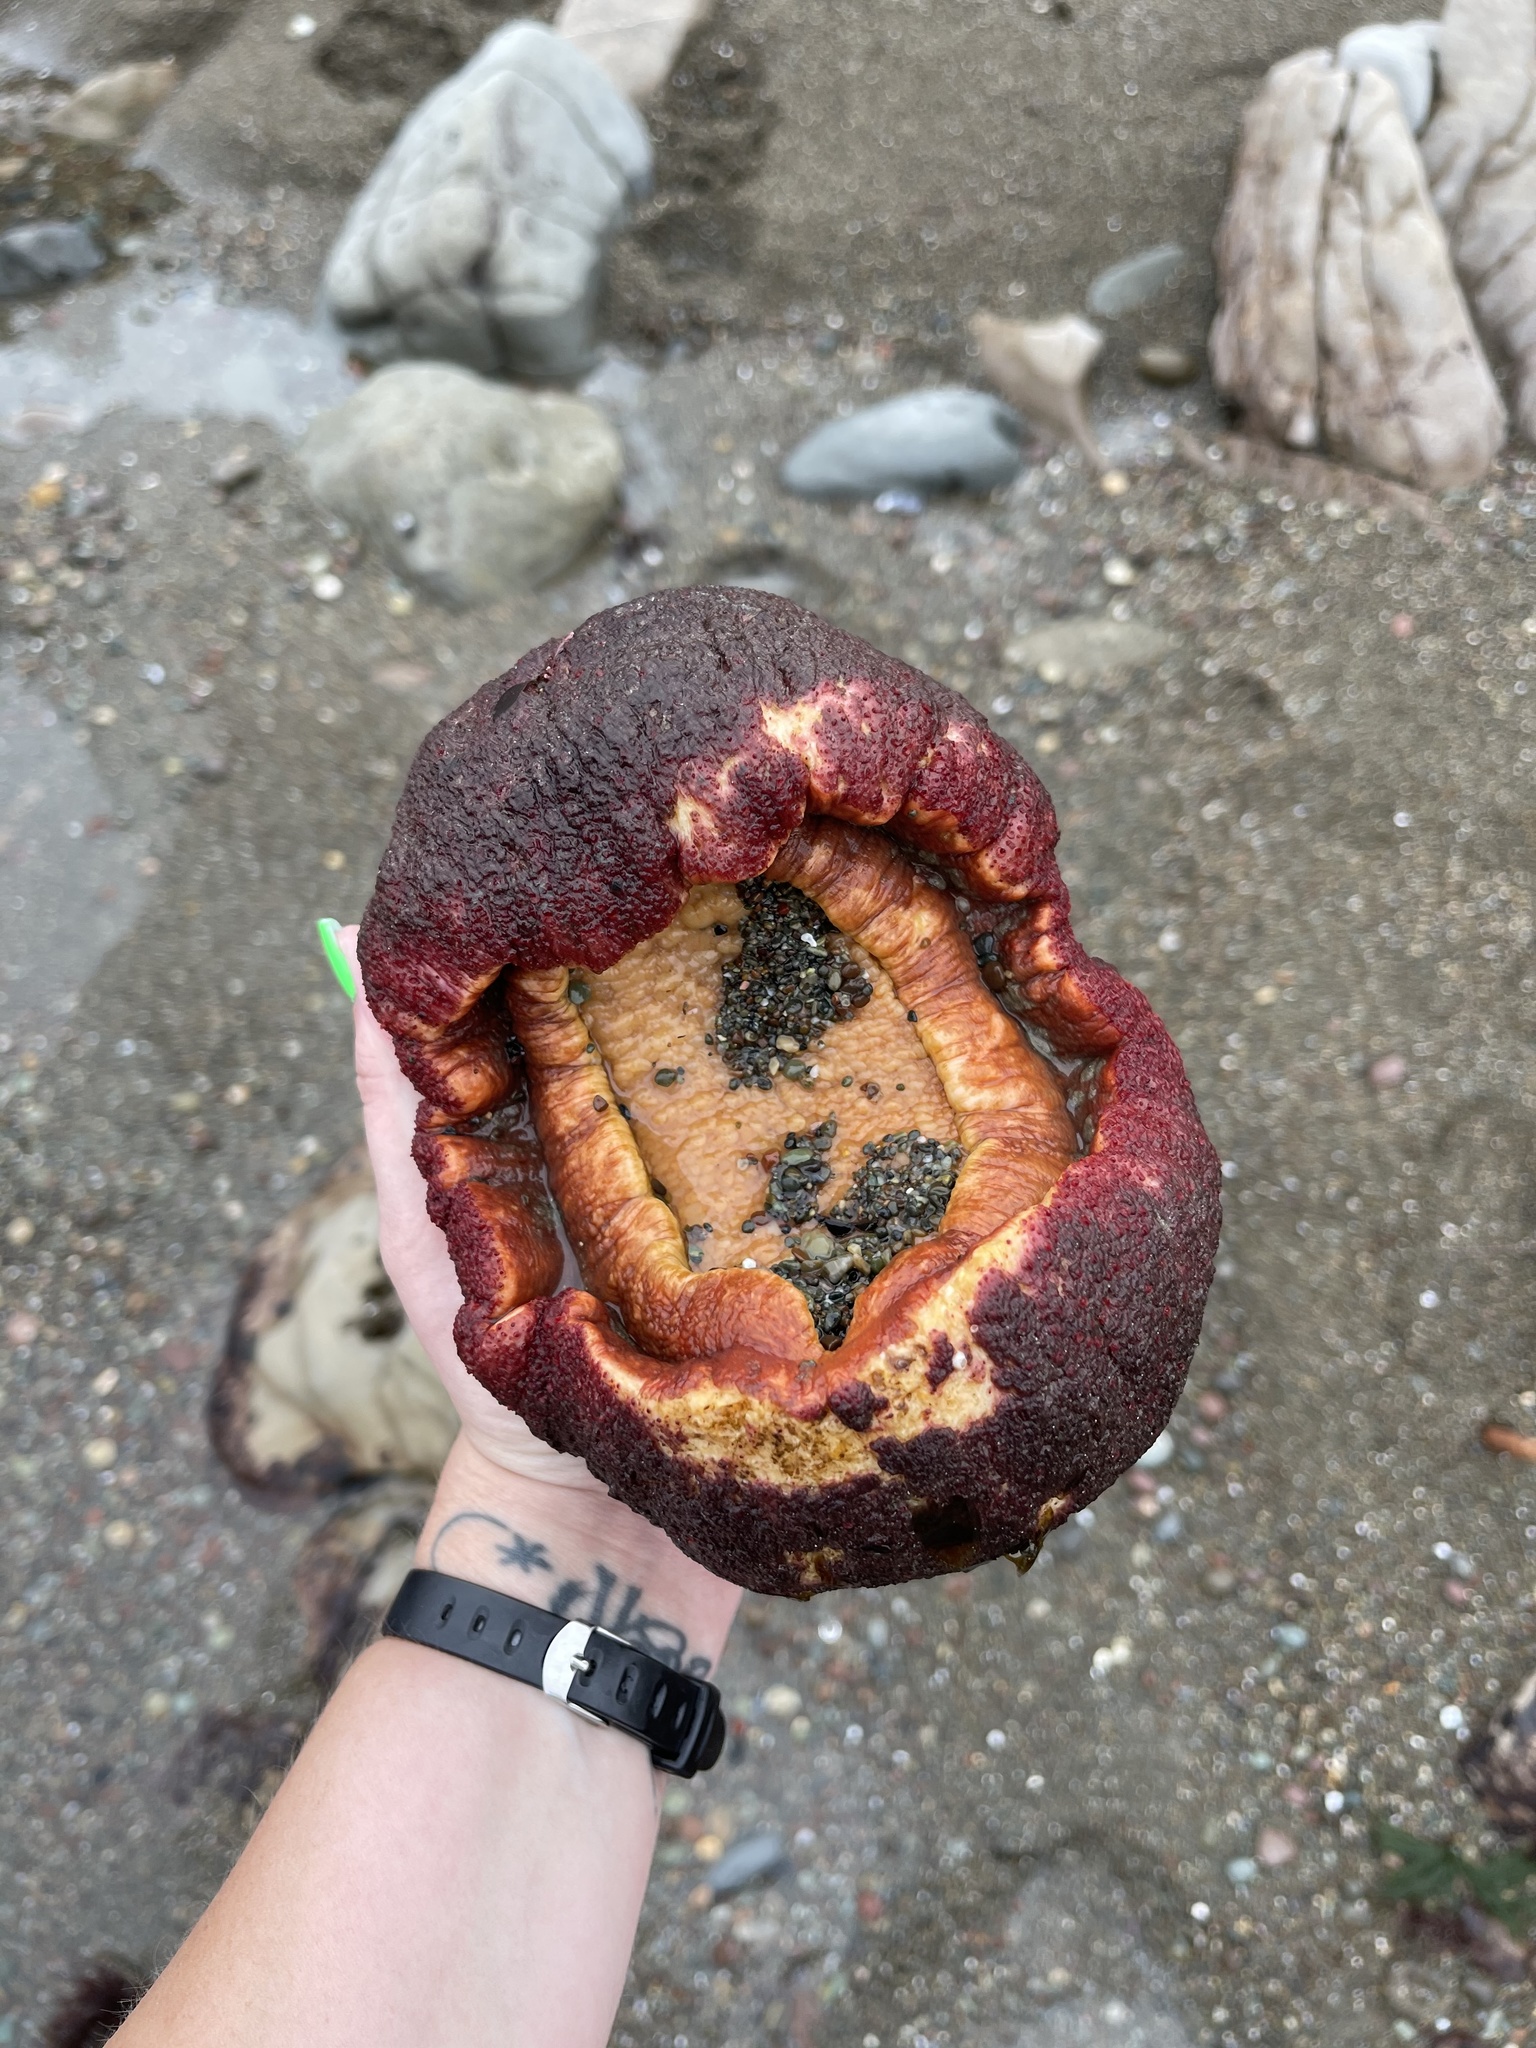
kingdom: Animalia
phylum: Mollusca
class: Polyplacophora
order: Chitonida
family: Acanthochitonidae
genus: Cryptochiton
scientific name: Cryptochiton stelleri
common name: Giant pacific chiton
